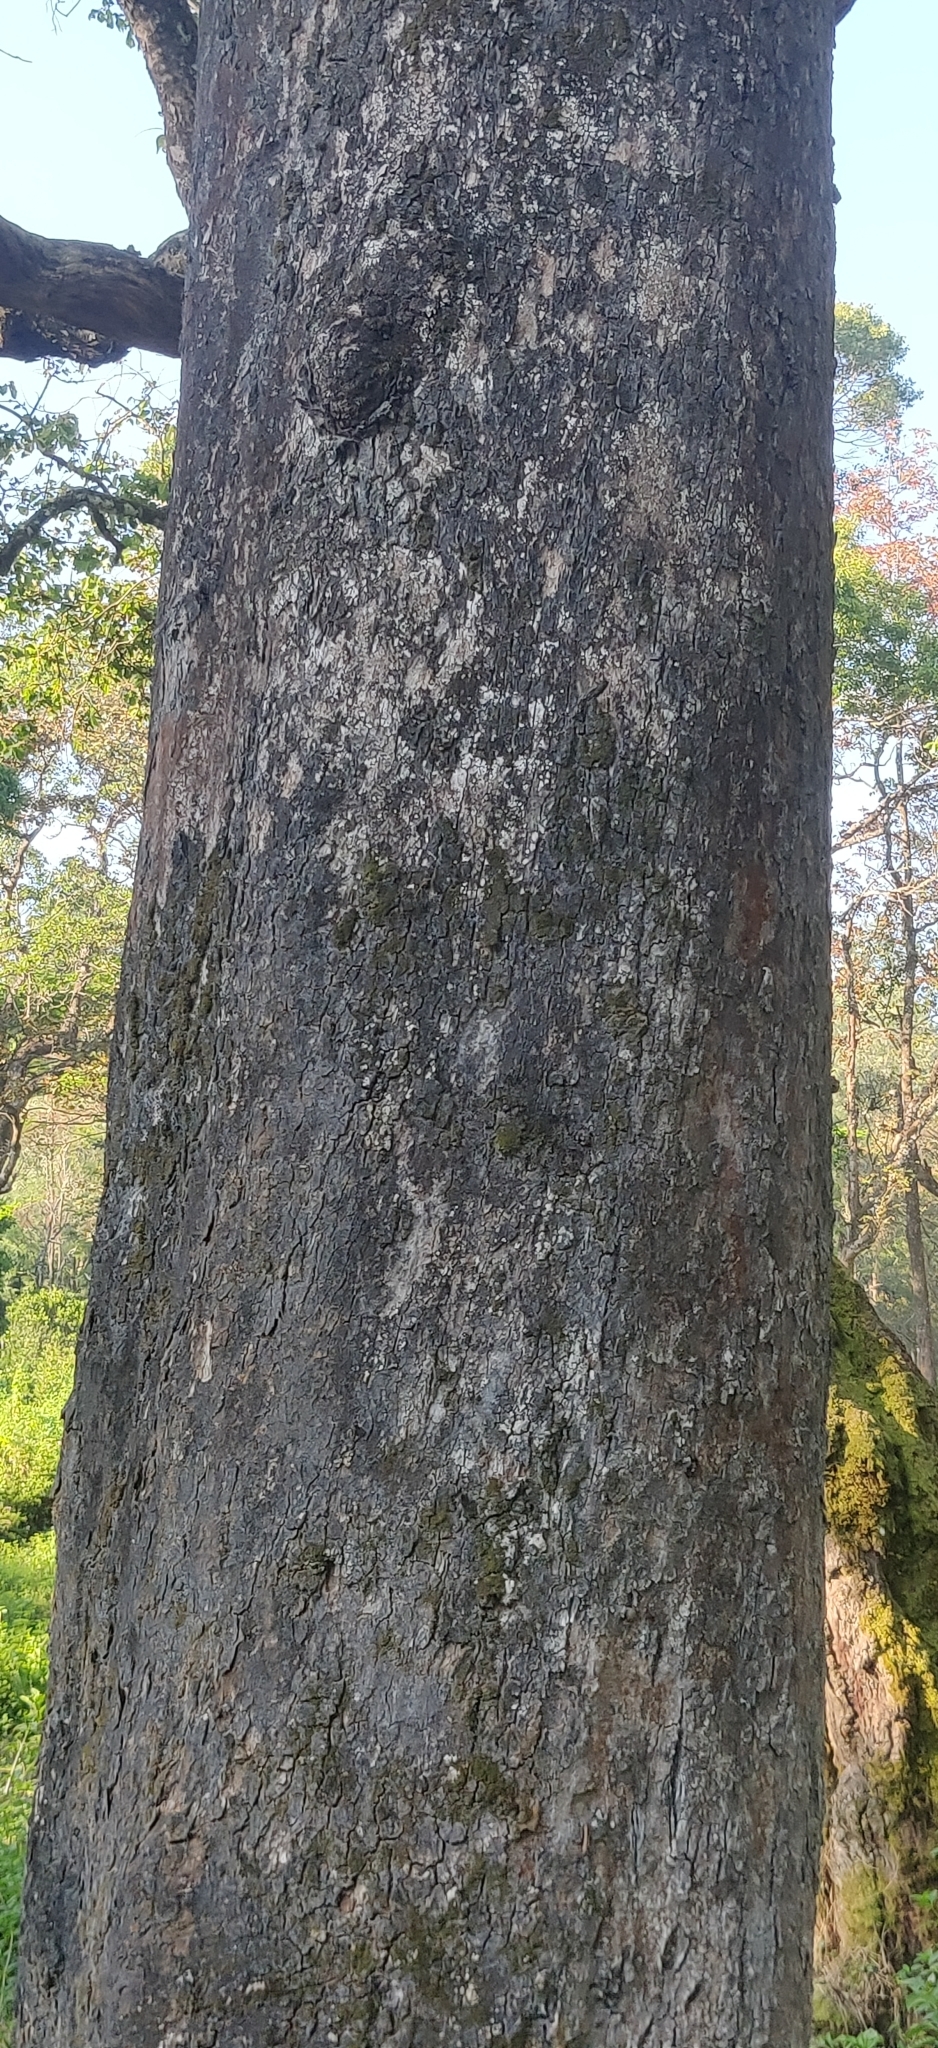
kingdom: Plantae
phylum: Tracheophyta
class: Magnoliopsida
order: Myrtales
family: Combretaceae
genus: Terminalia
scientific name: Terminalia bellirica
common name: Beleric myrobalan
